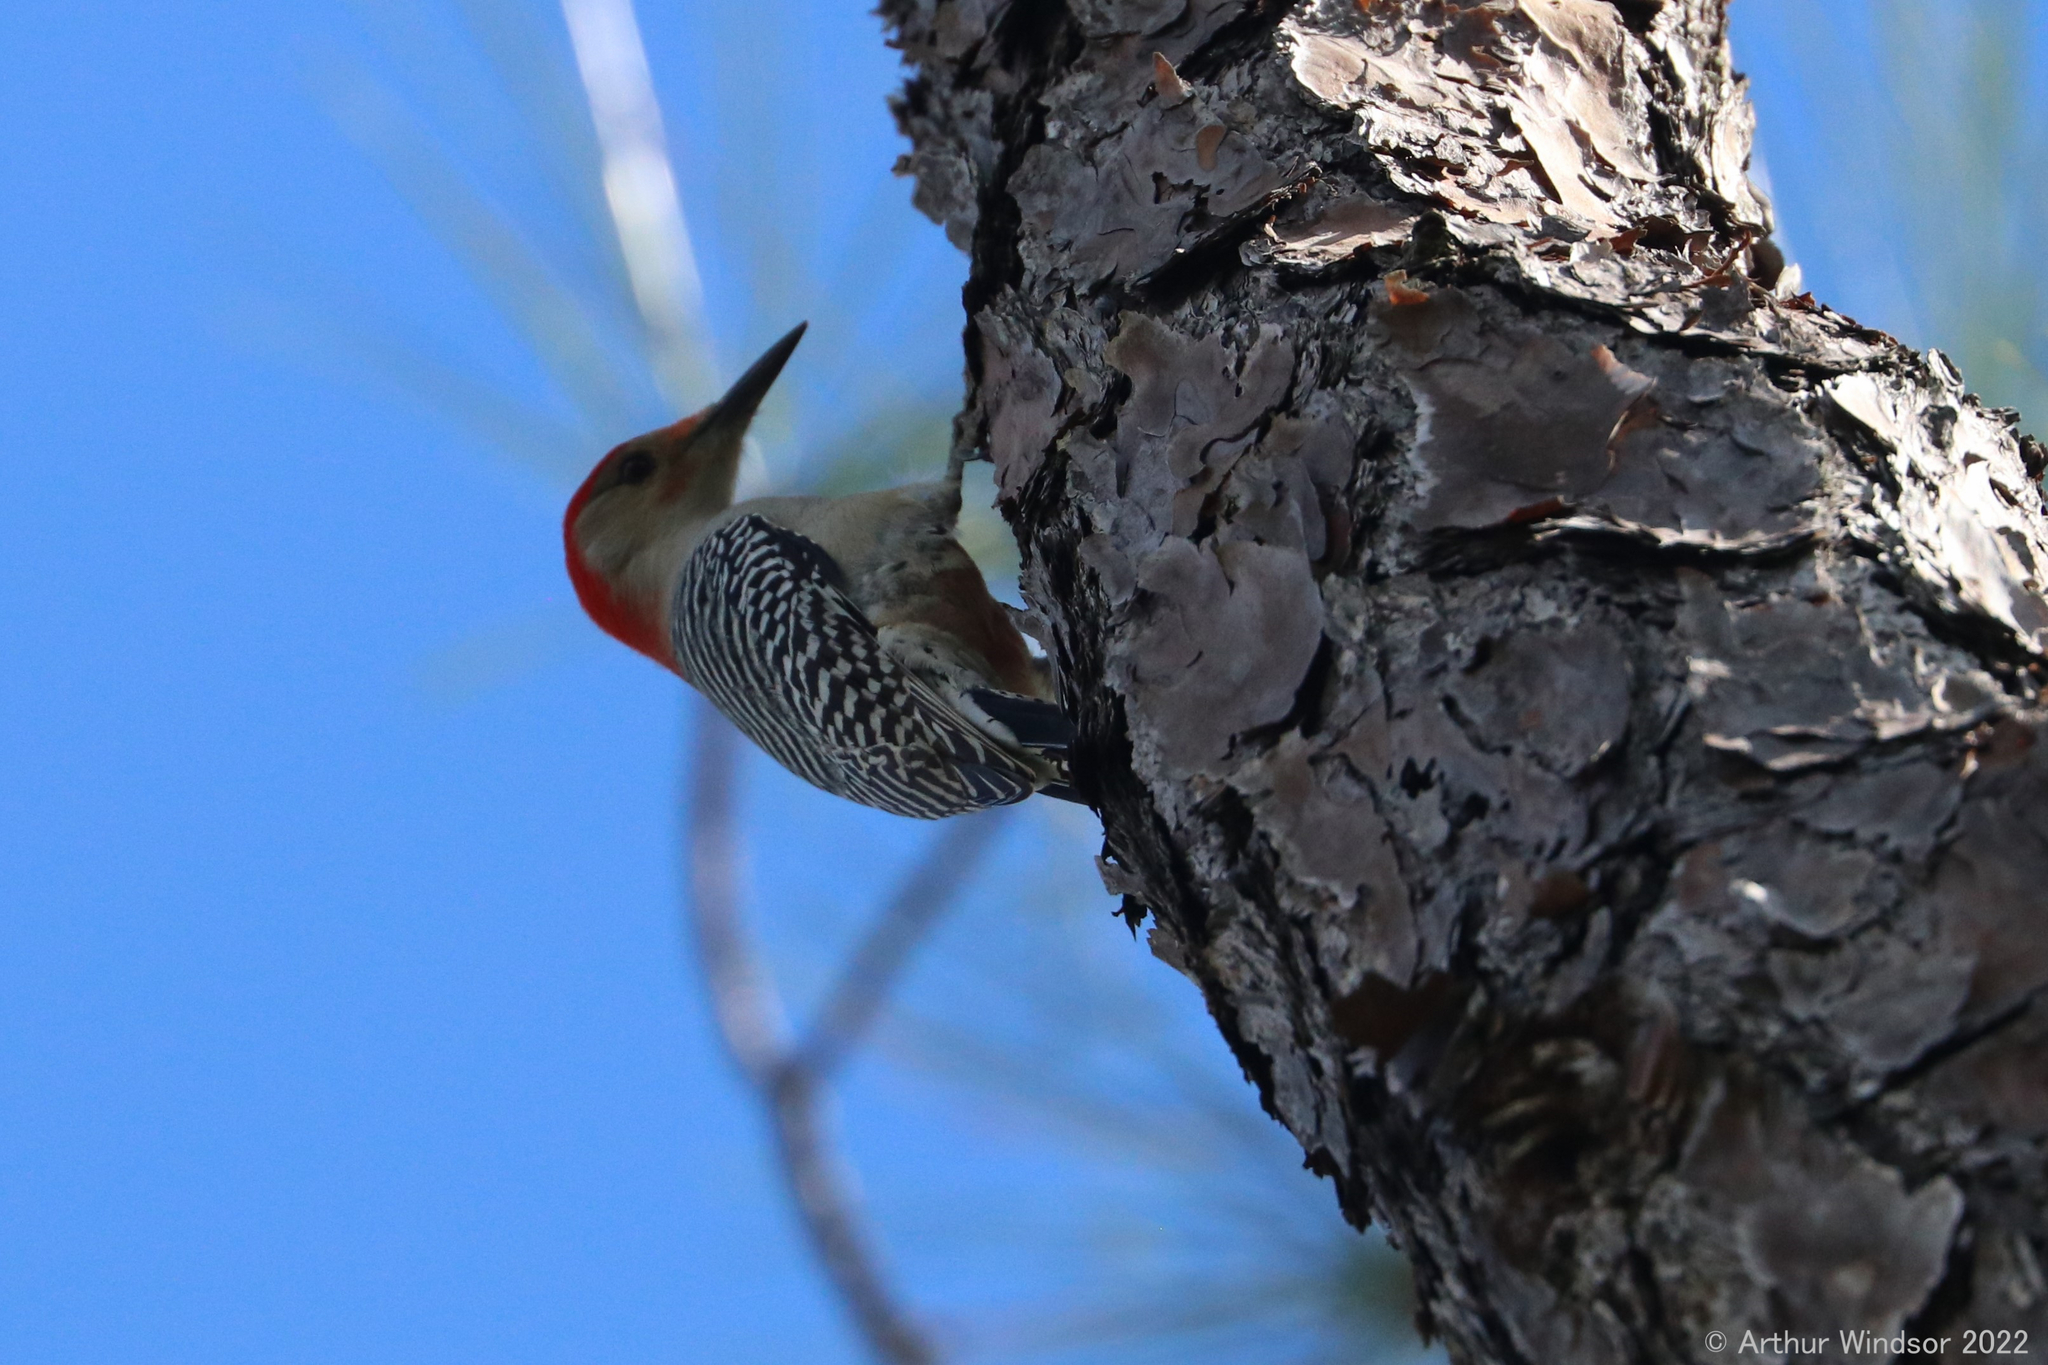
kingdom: Animalia
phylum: Chordata
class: Aves
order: Piciformes
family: Picidae
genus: Melanerpes
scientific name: Melanerpes carolinus
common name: Red-bellied woodpecker
